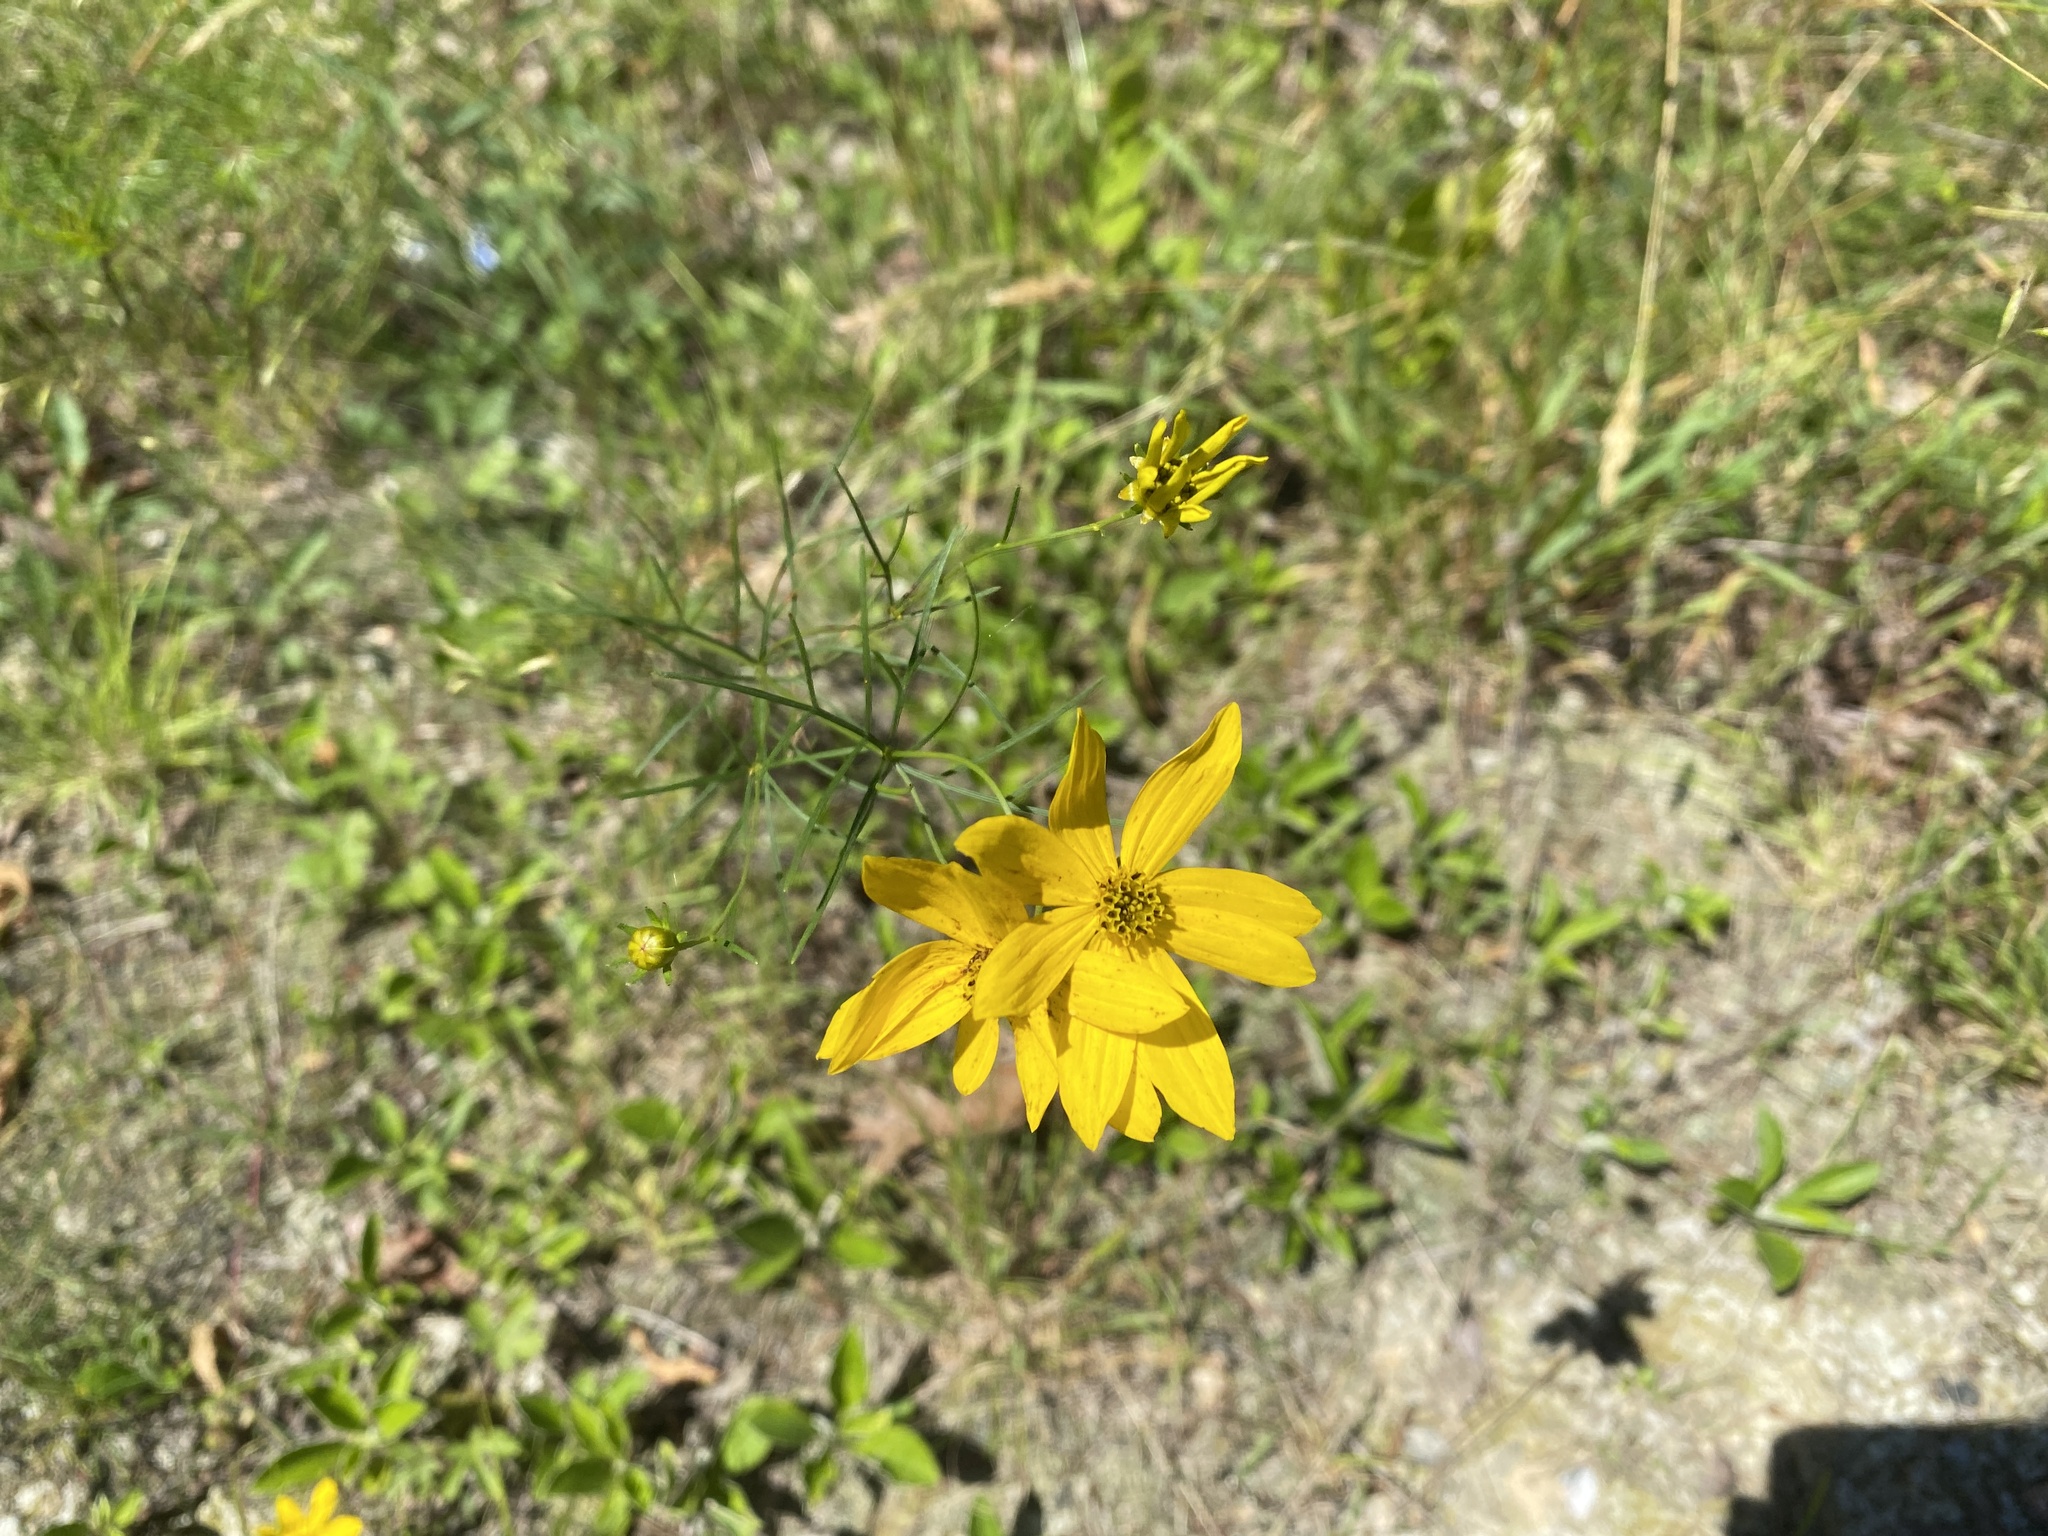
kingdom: Plantae
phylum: Tracheophyta
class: Magnoliopsida
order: Asterales
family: Asteraceae
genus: Coreopsis
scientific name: Coreopsis verticillata
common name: Whorled tickseed
